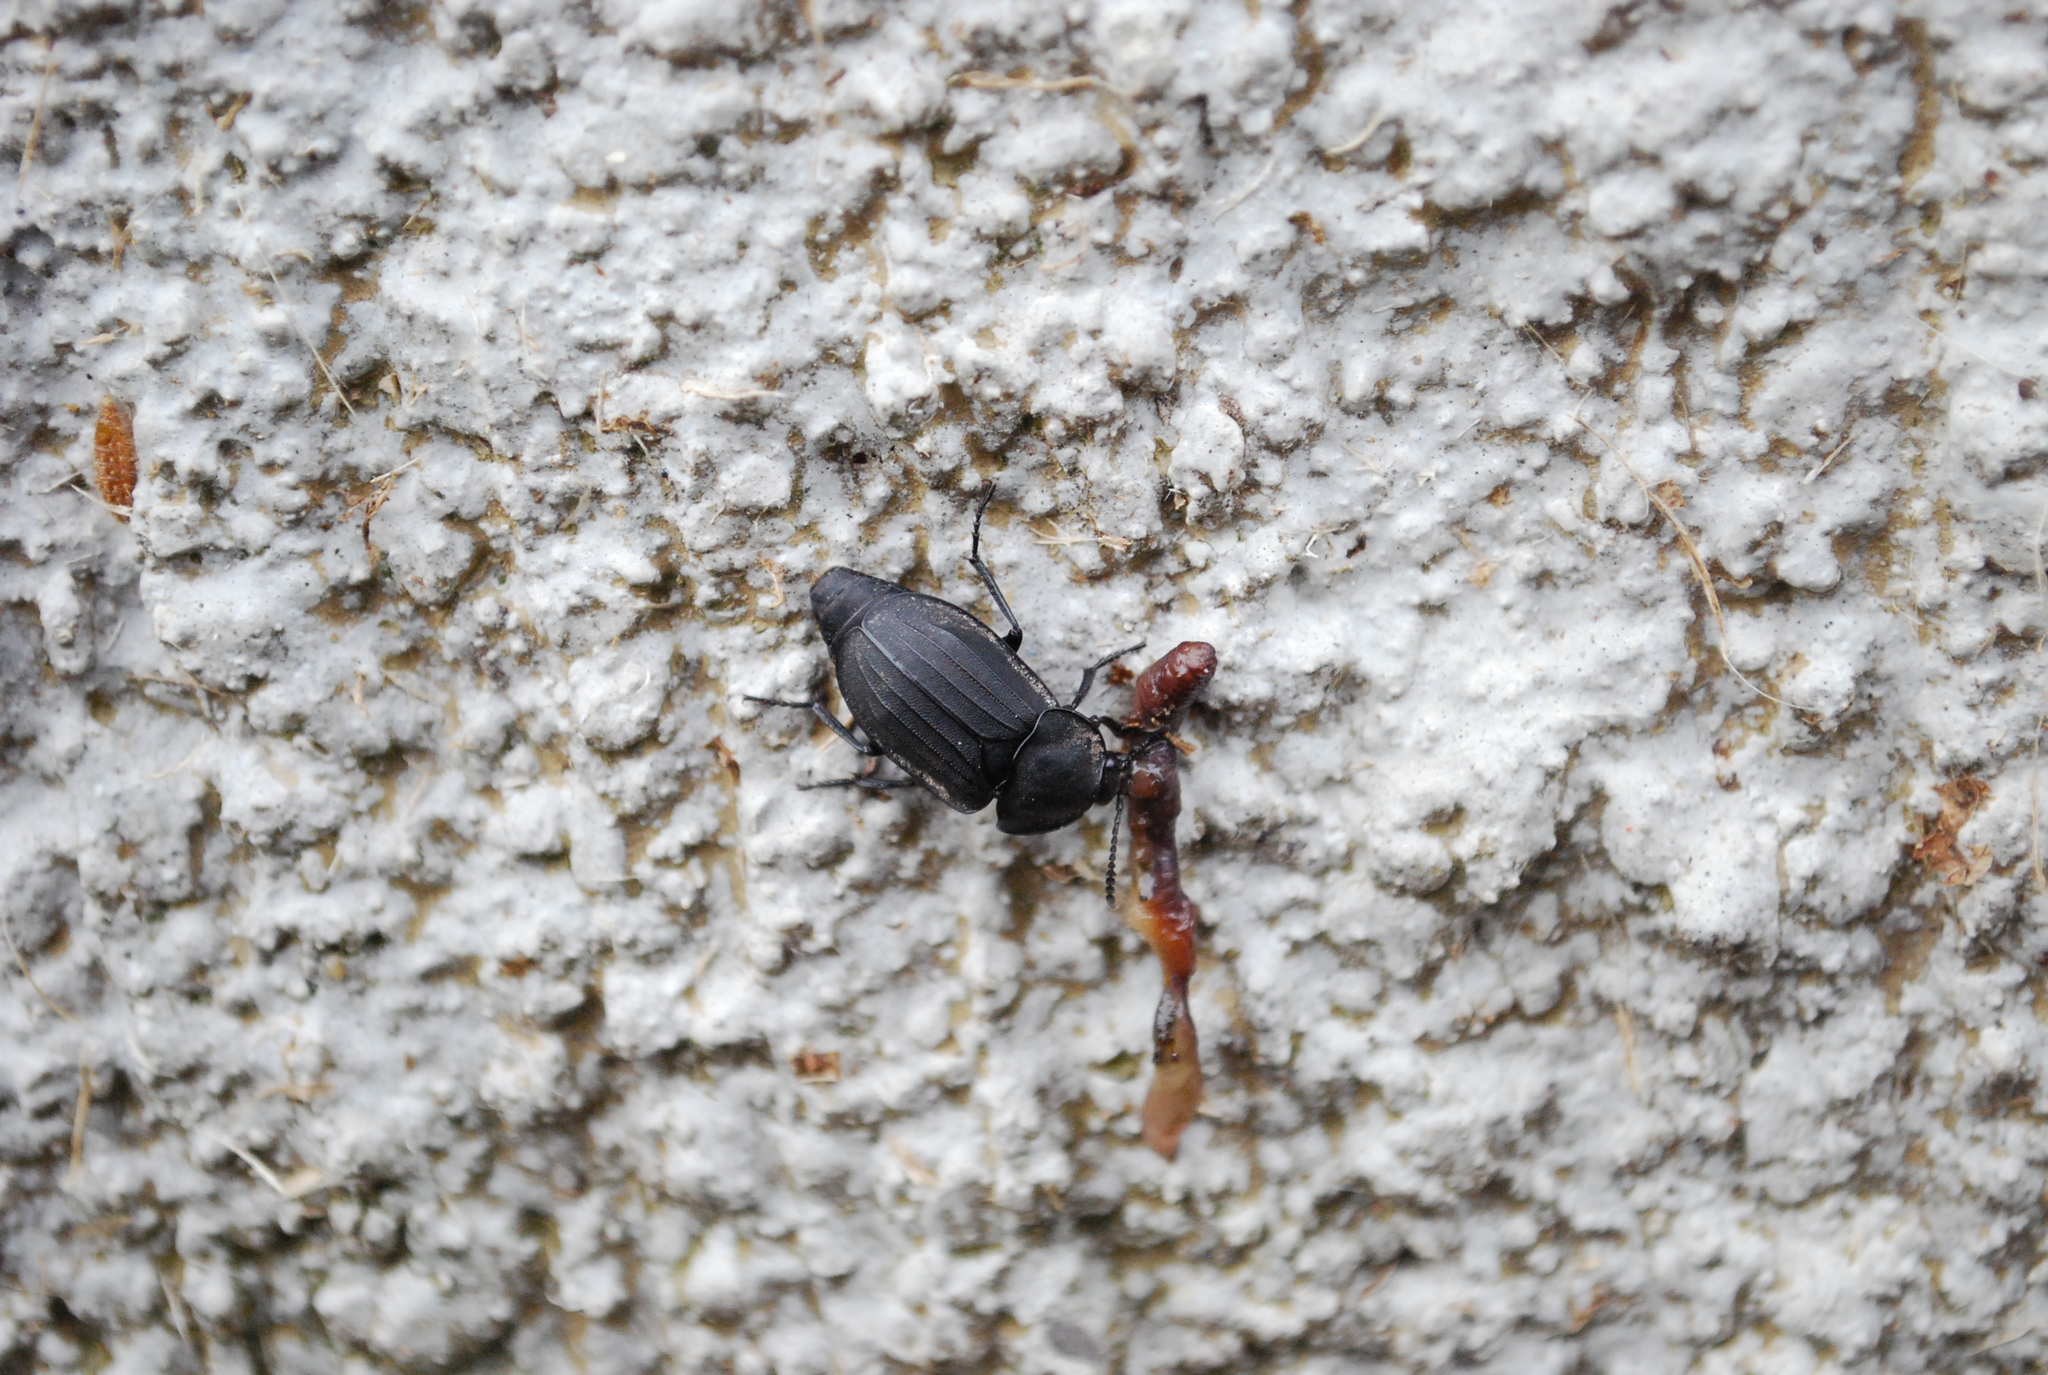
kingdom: Animalia
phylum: Arthropoda
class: Insecta
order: Coleoptera
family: Staphylinidae
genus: Silpha
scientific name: Silpha tristis
